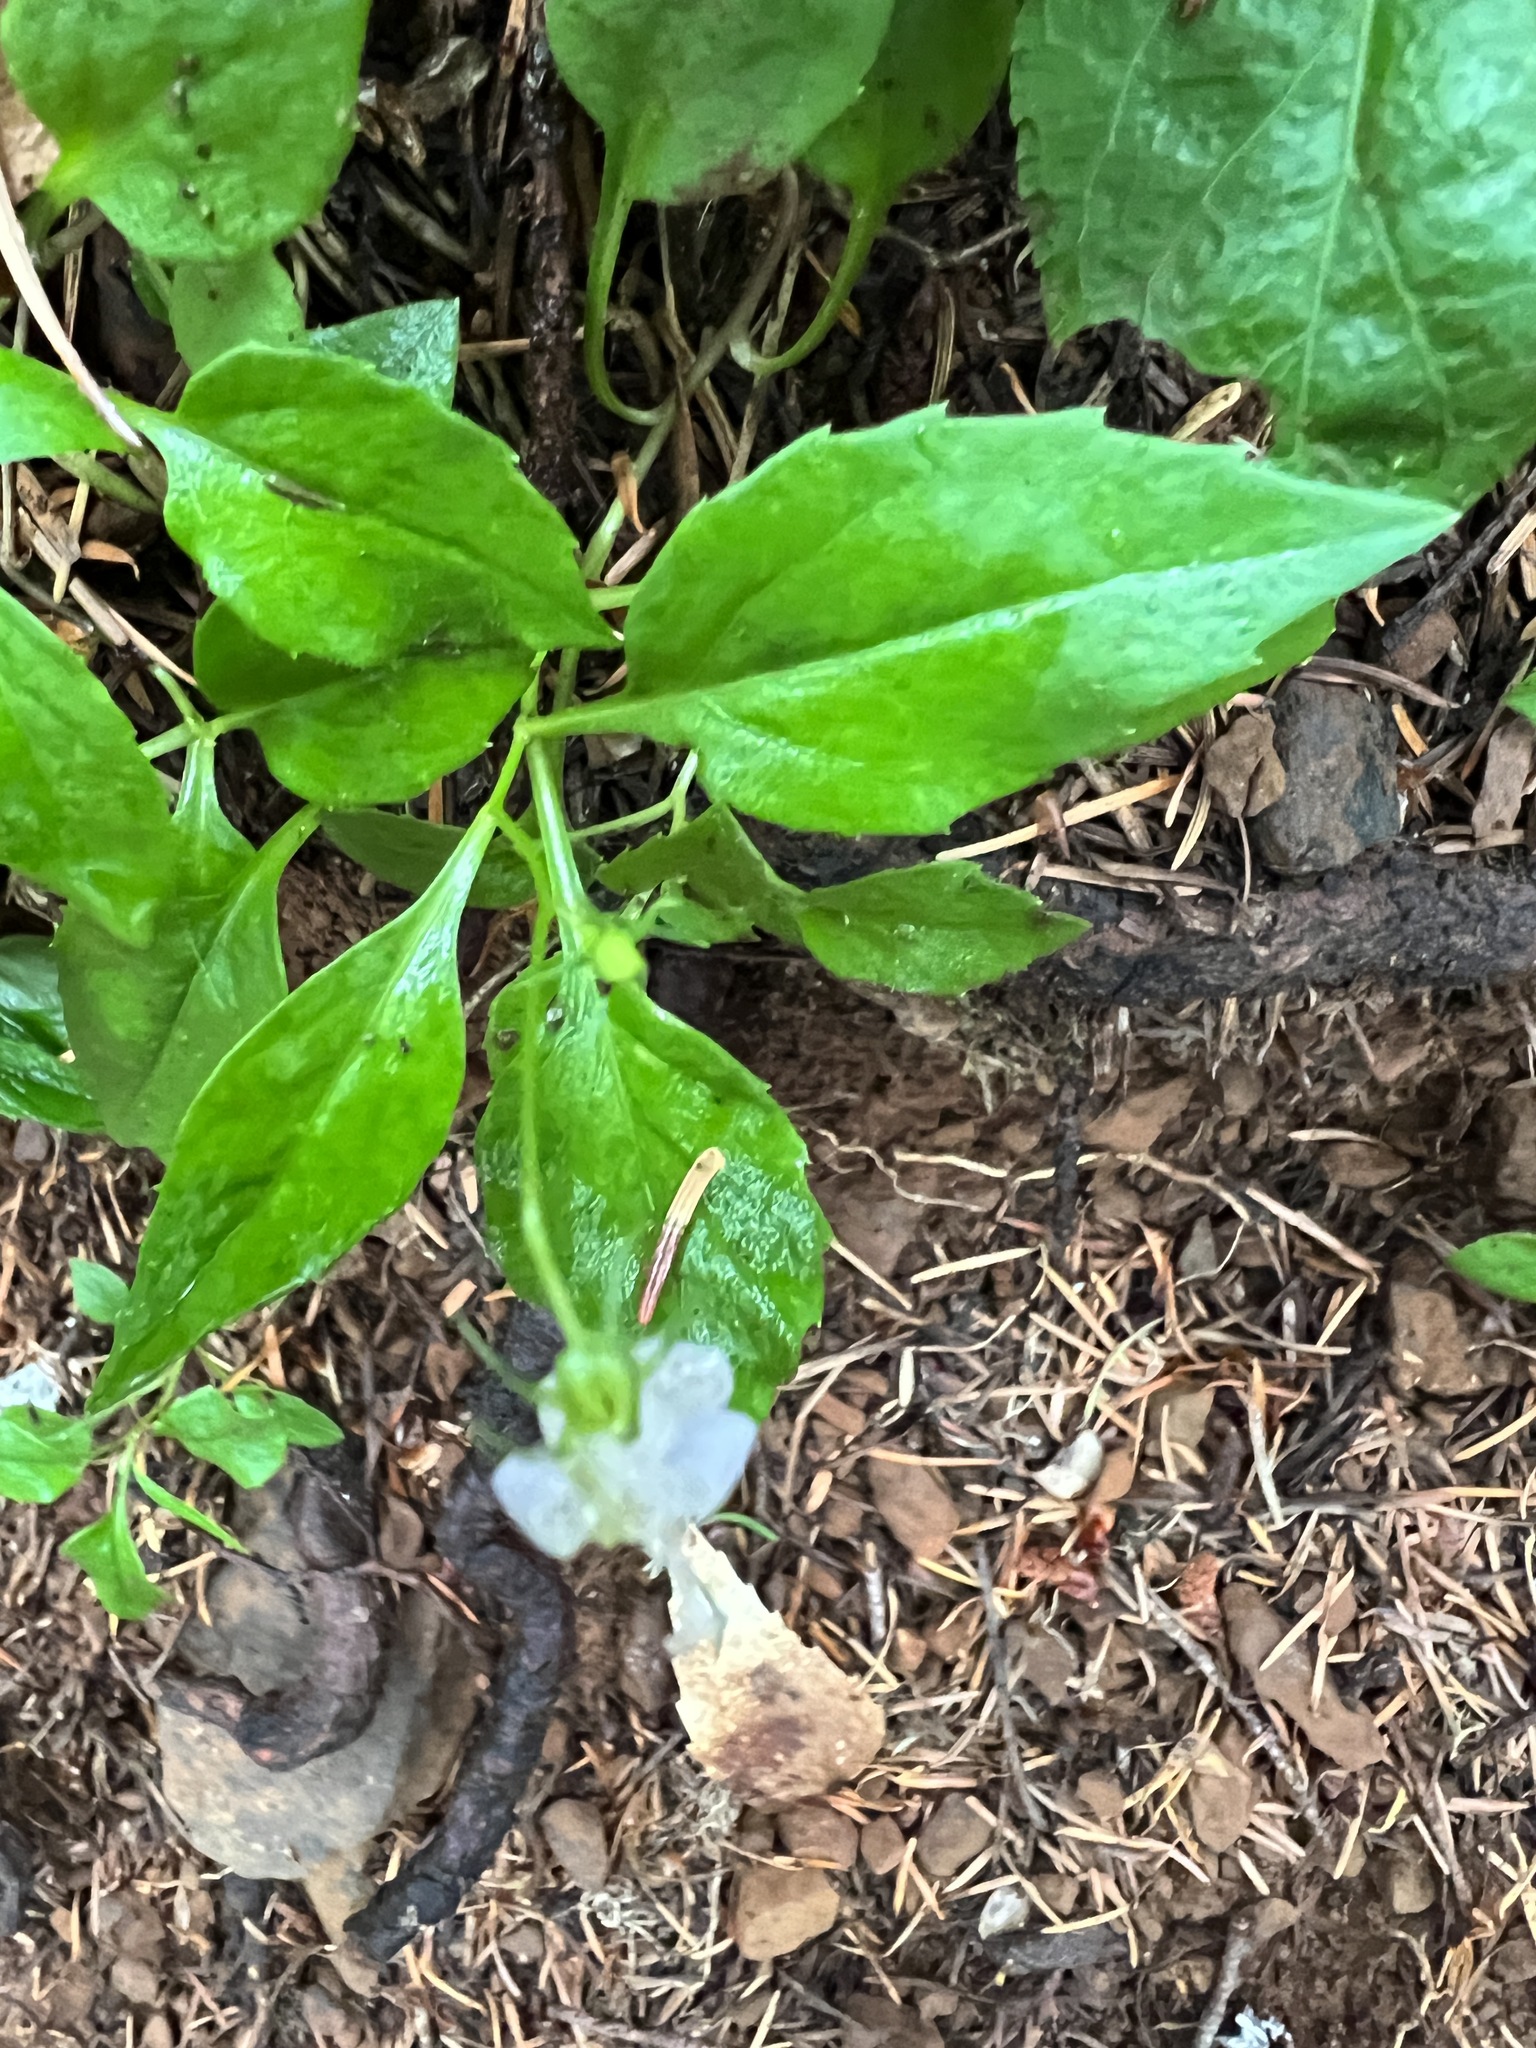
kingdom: Plantae
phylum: Tracheophyta
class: Magnoliopsida
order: Asterales
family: Campanulaceae
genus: Campanula
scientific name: Campanula scouleri
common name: Scouler's harebell
